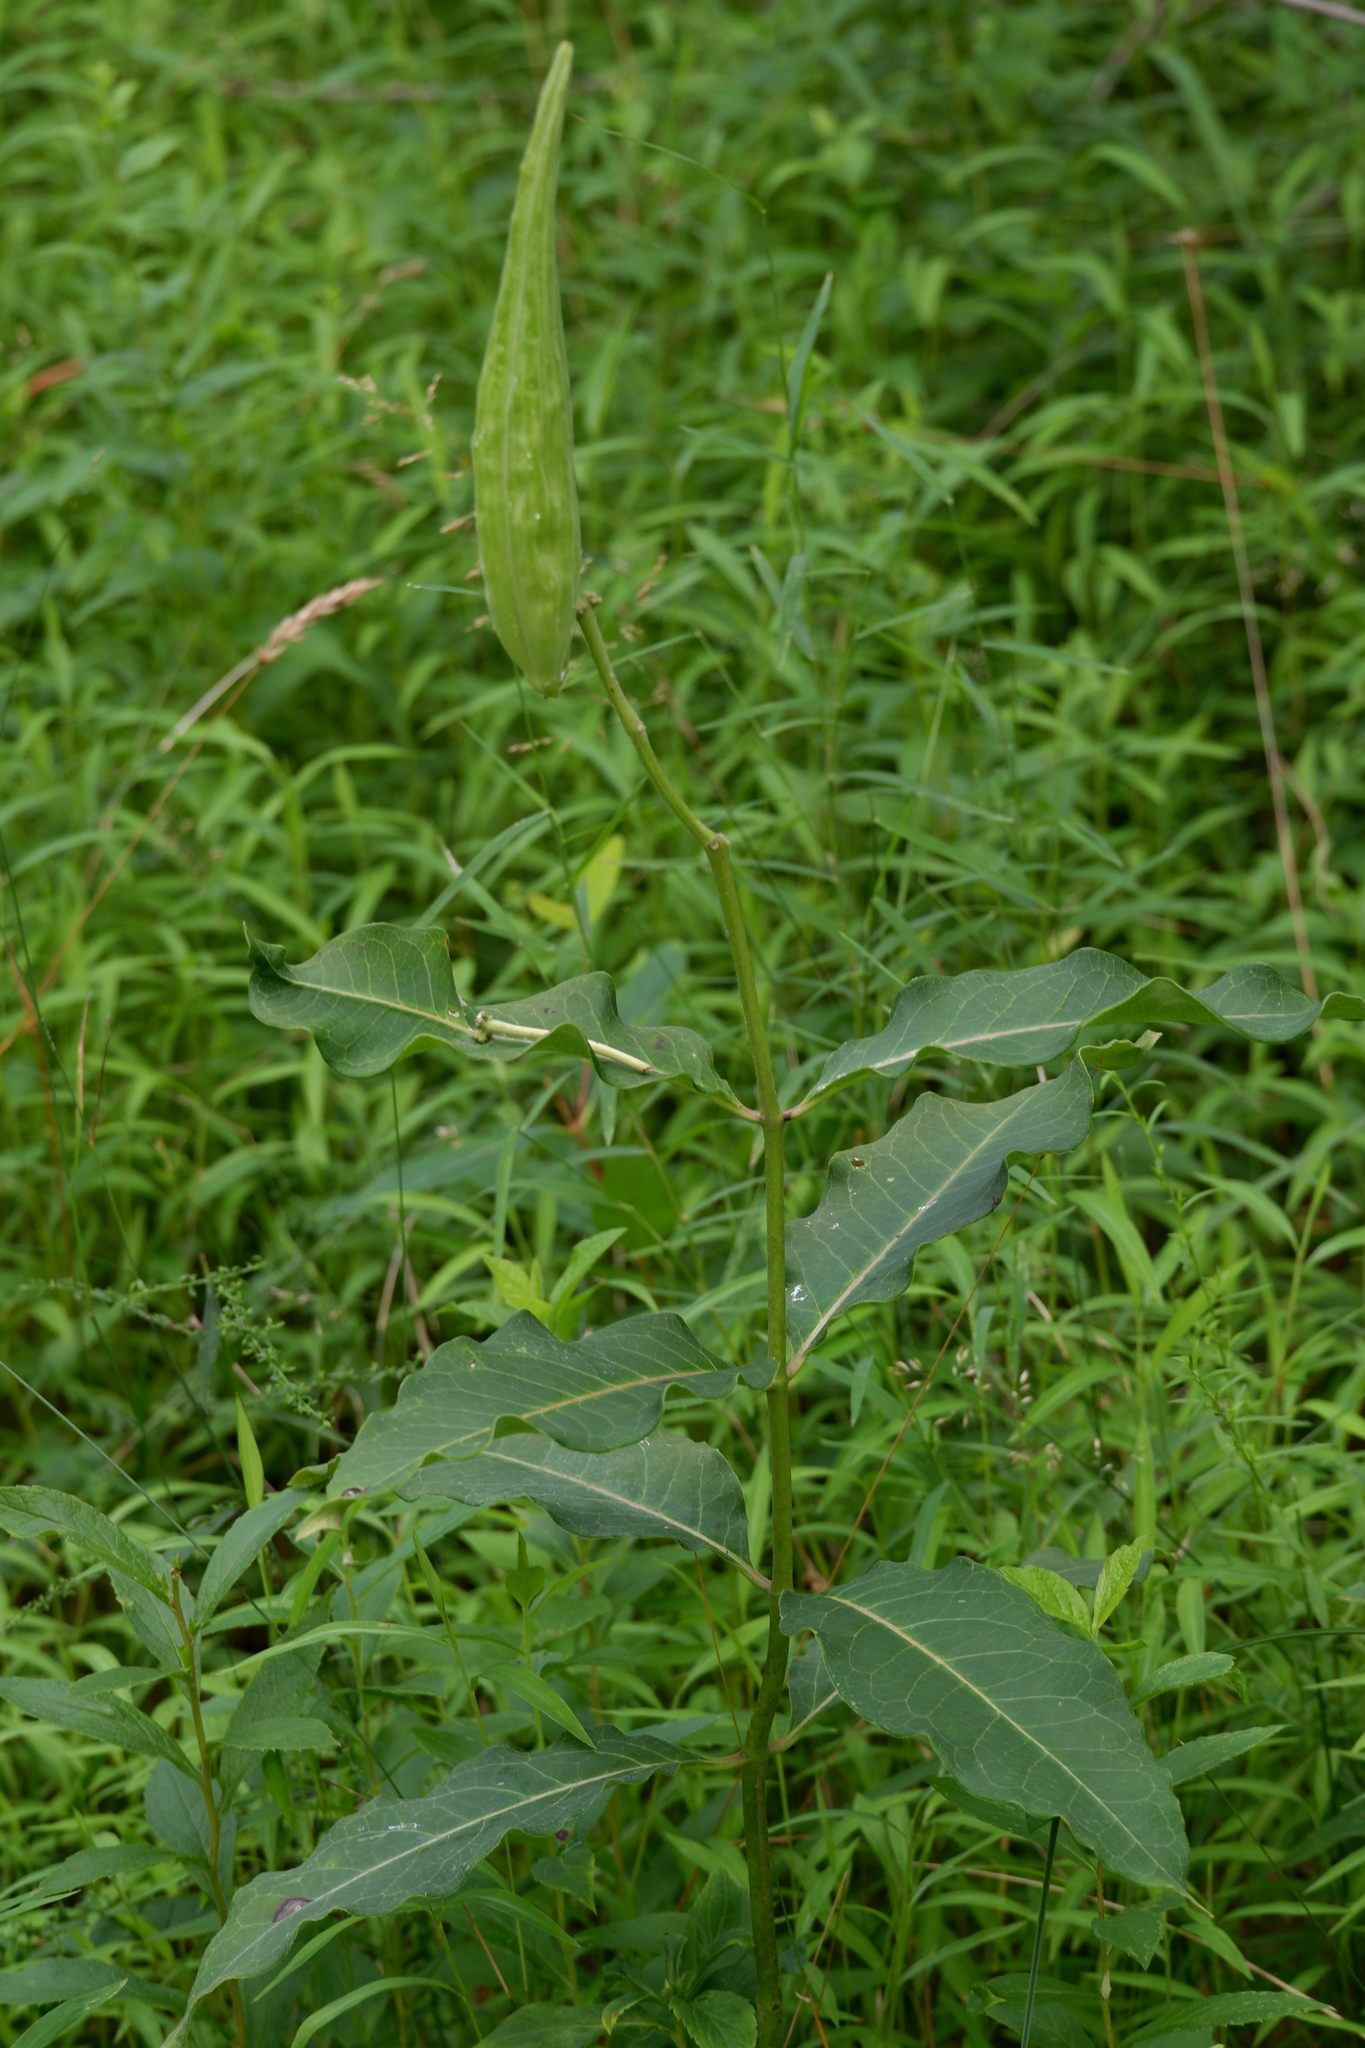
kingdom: Plantae
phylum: Tracheophyta
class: Magnoliopsida
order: Gentianales
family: Apocynaceae
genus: Asclepias
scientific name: Asclepias purpurascens
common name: Purple milkweed
